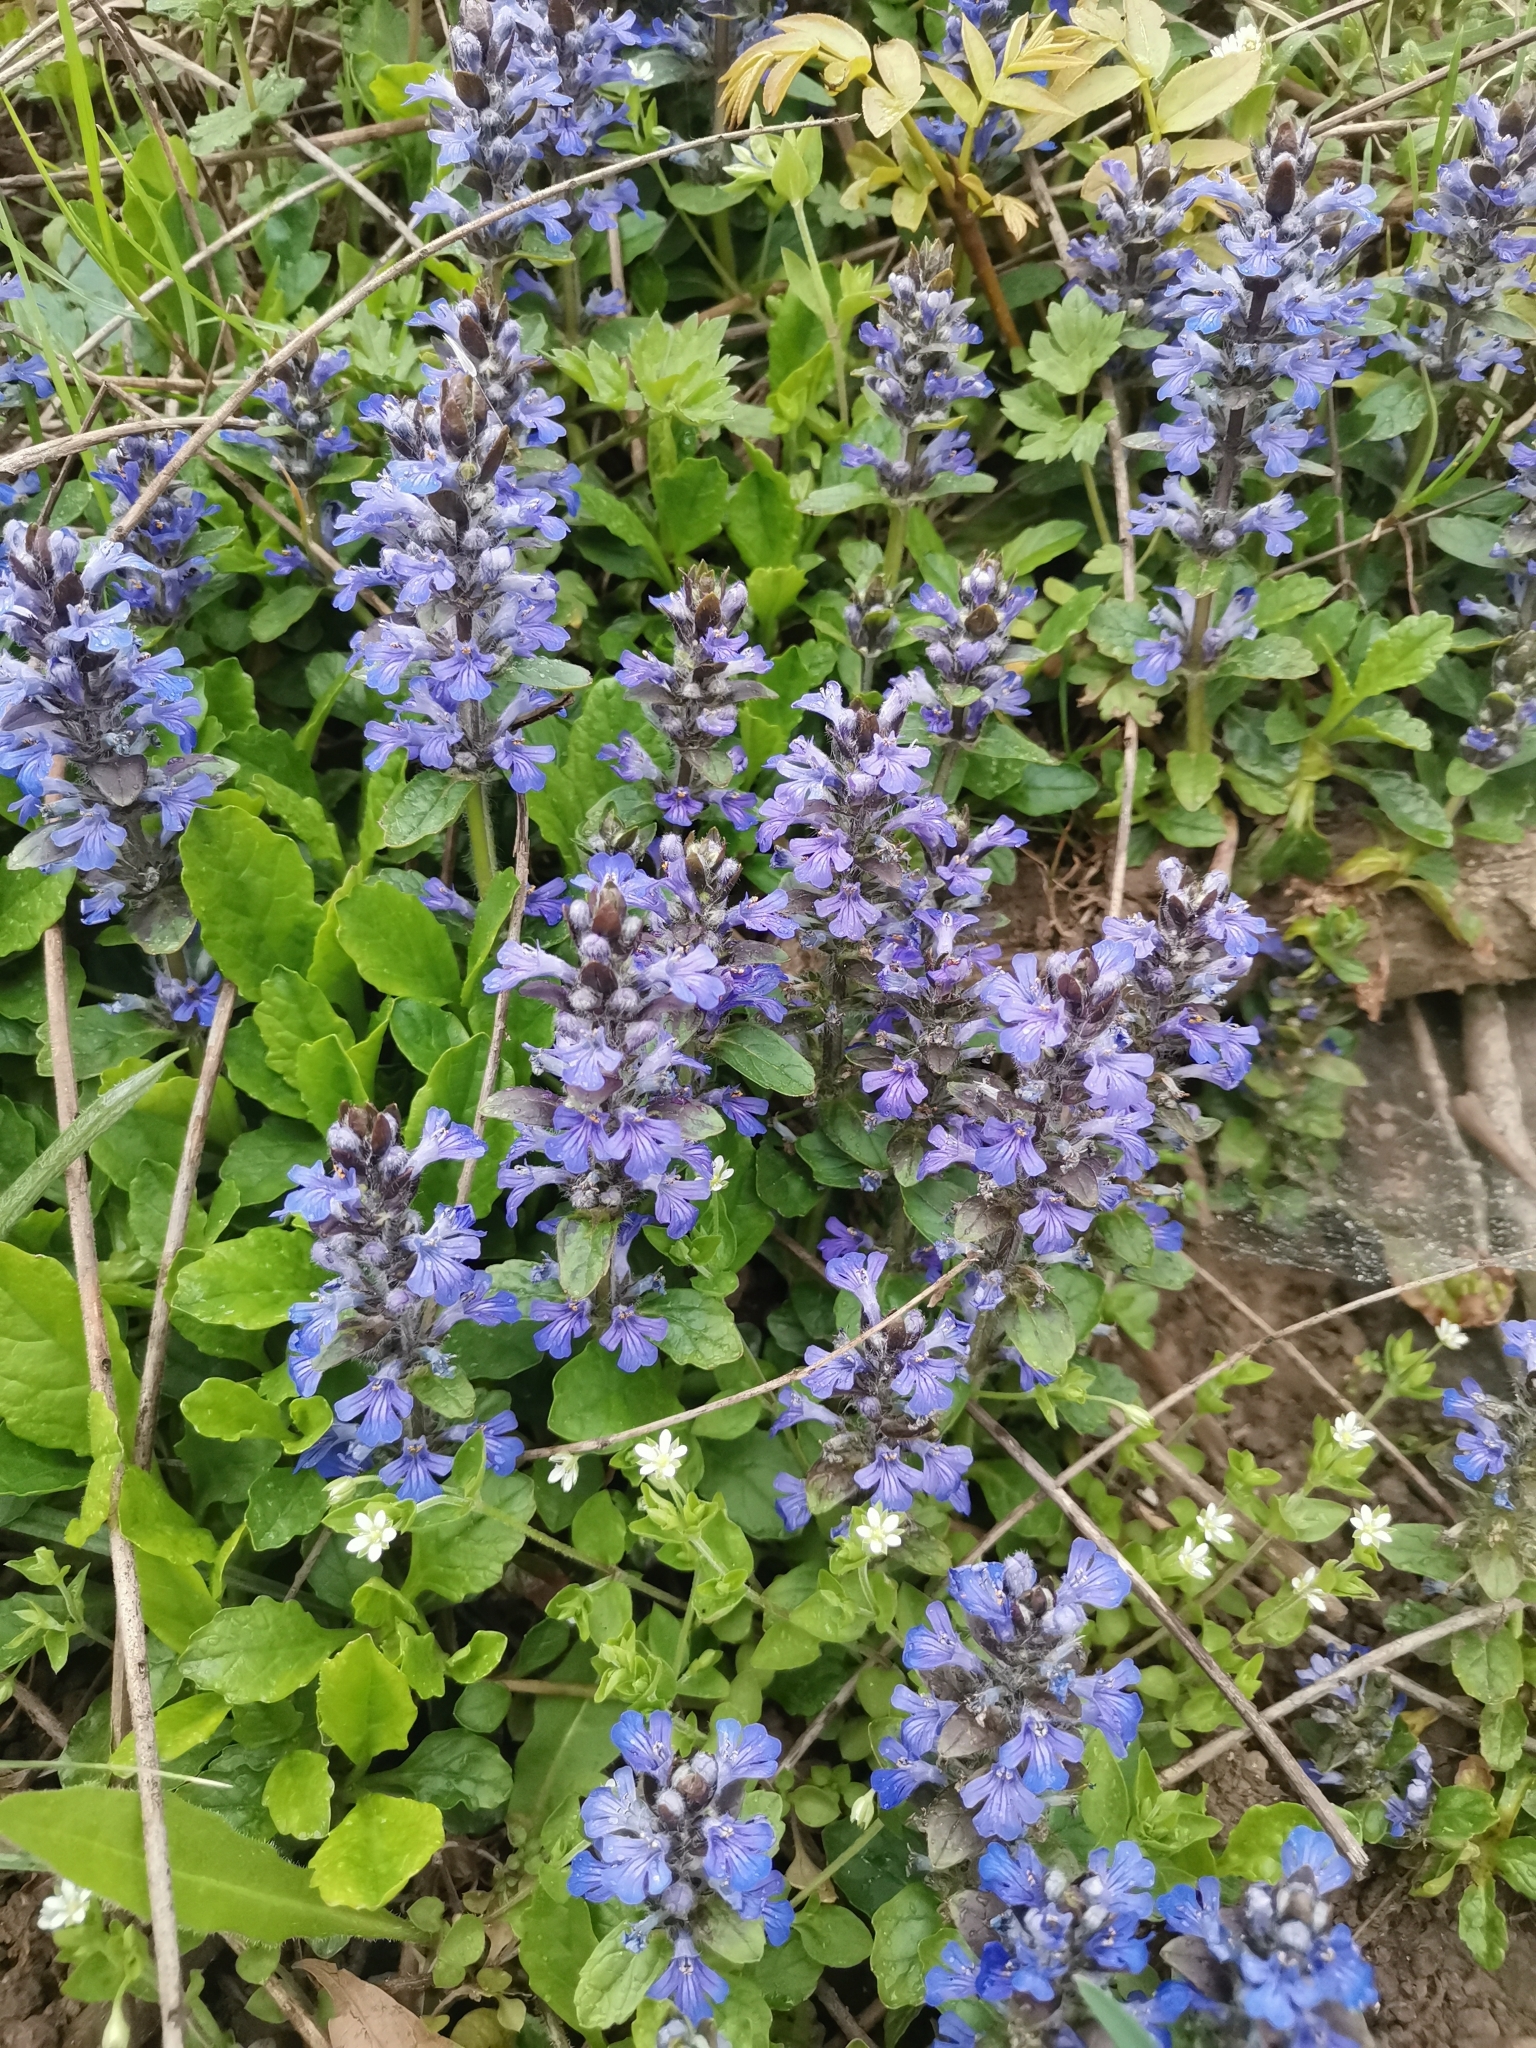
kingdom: Plantae
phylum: Tracheophyta
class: Magnoliopsida
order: Lamiales
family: Lamiaceae
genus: Ajuga
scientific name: Ajuga reptans
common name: Bugle
